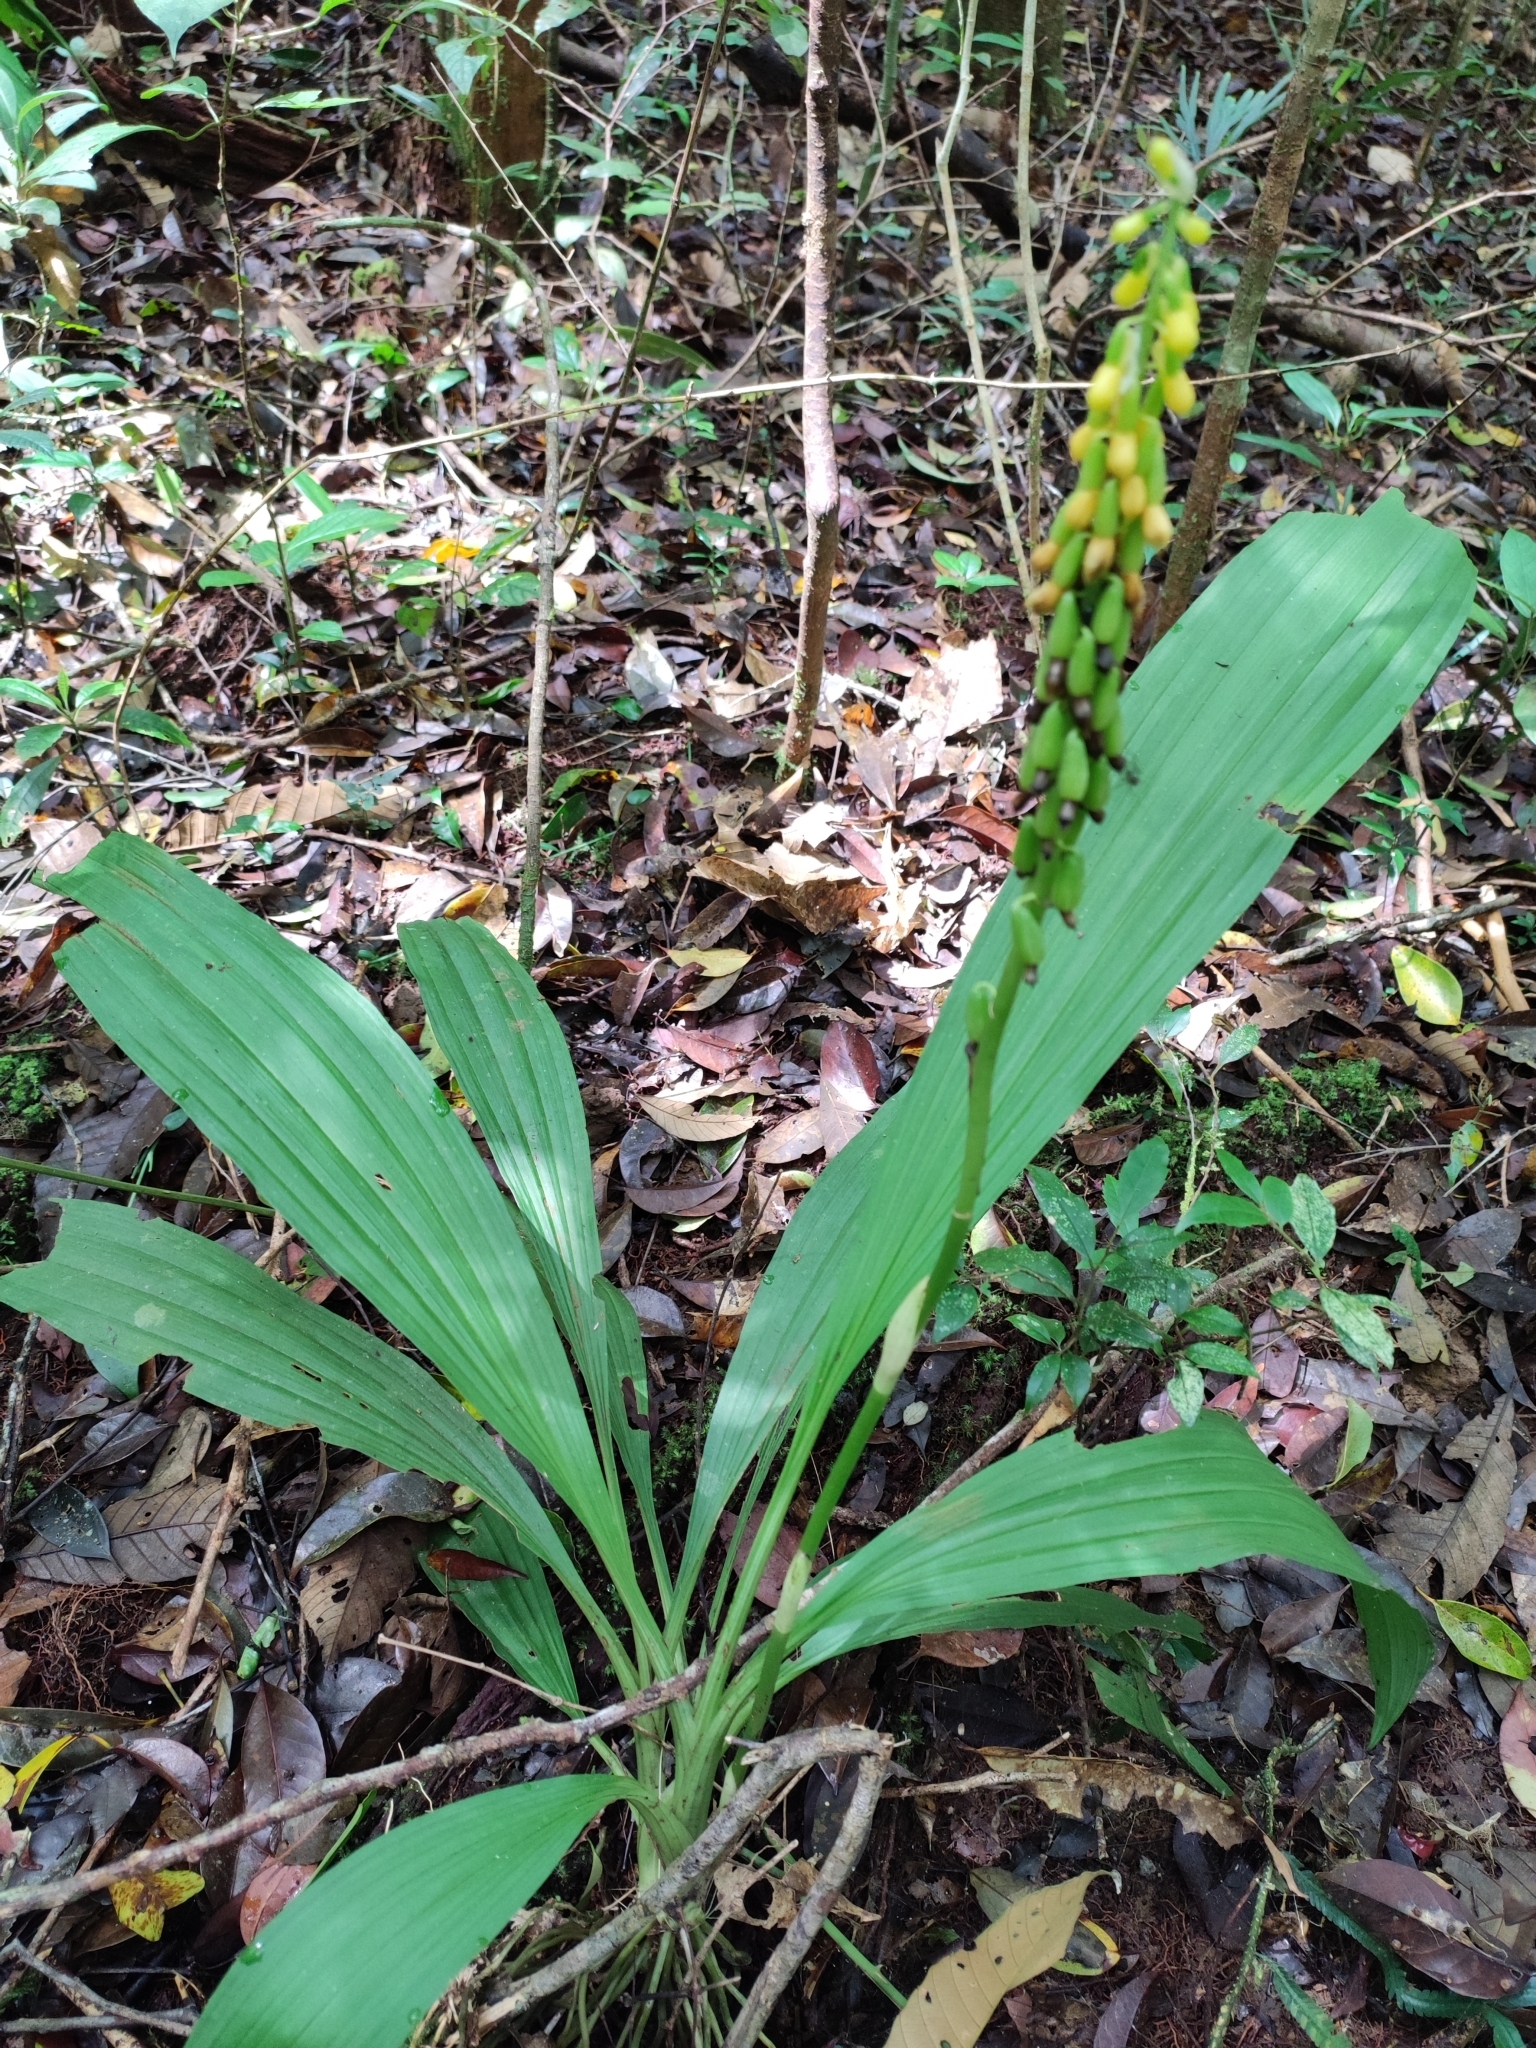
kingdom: Plantae
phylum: Tracheophyta
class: Liliopsida
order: Asparagales
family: Orchidaceae
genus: Calanthe
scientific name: Calanthe lyroglossa
